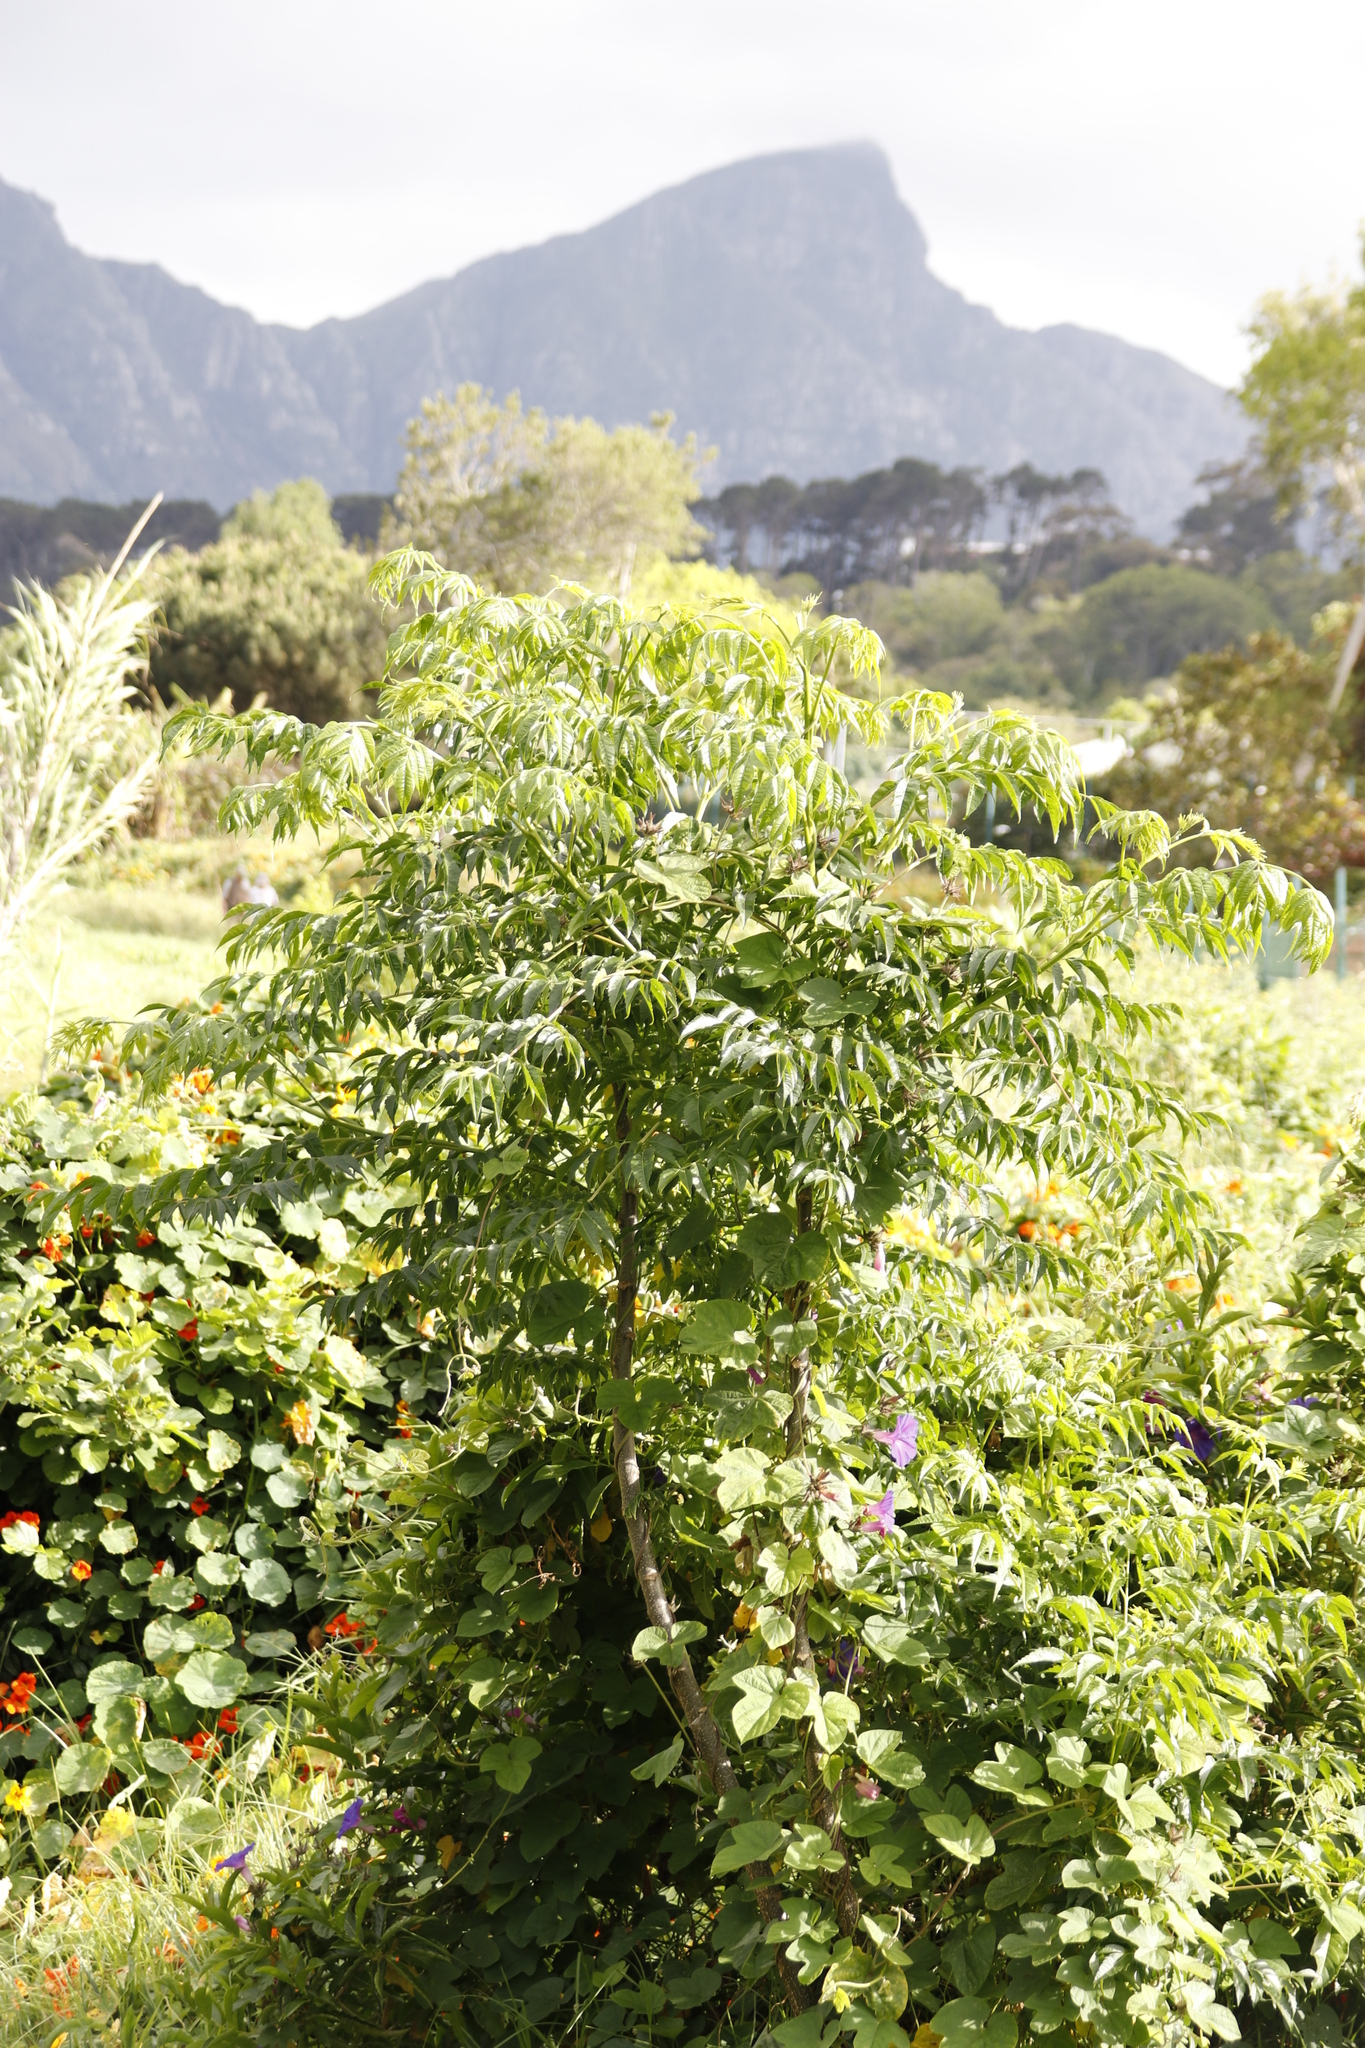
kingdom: Plantae
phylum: Tracheophyta
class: Magnoliopsida
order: Sapindales
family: Meliaceae
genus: Melia
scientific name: Melia azedarach
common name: Chinaberrytree
